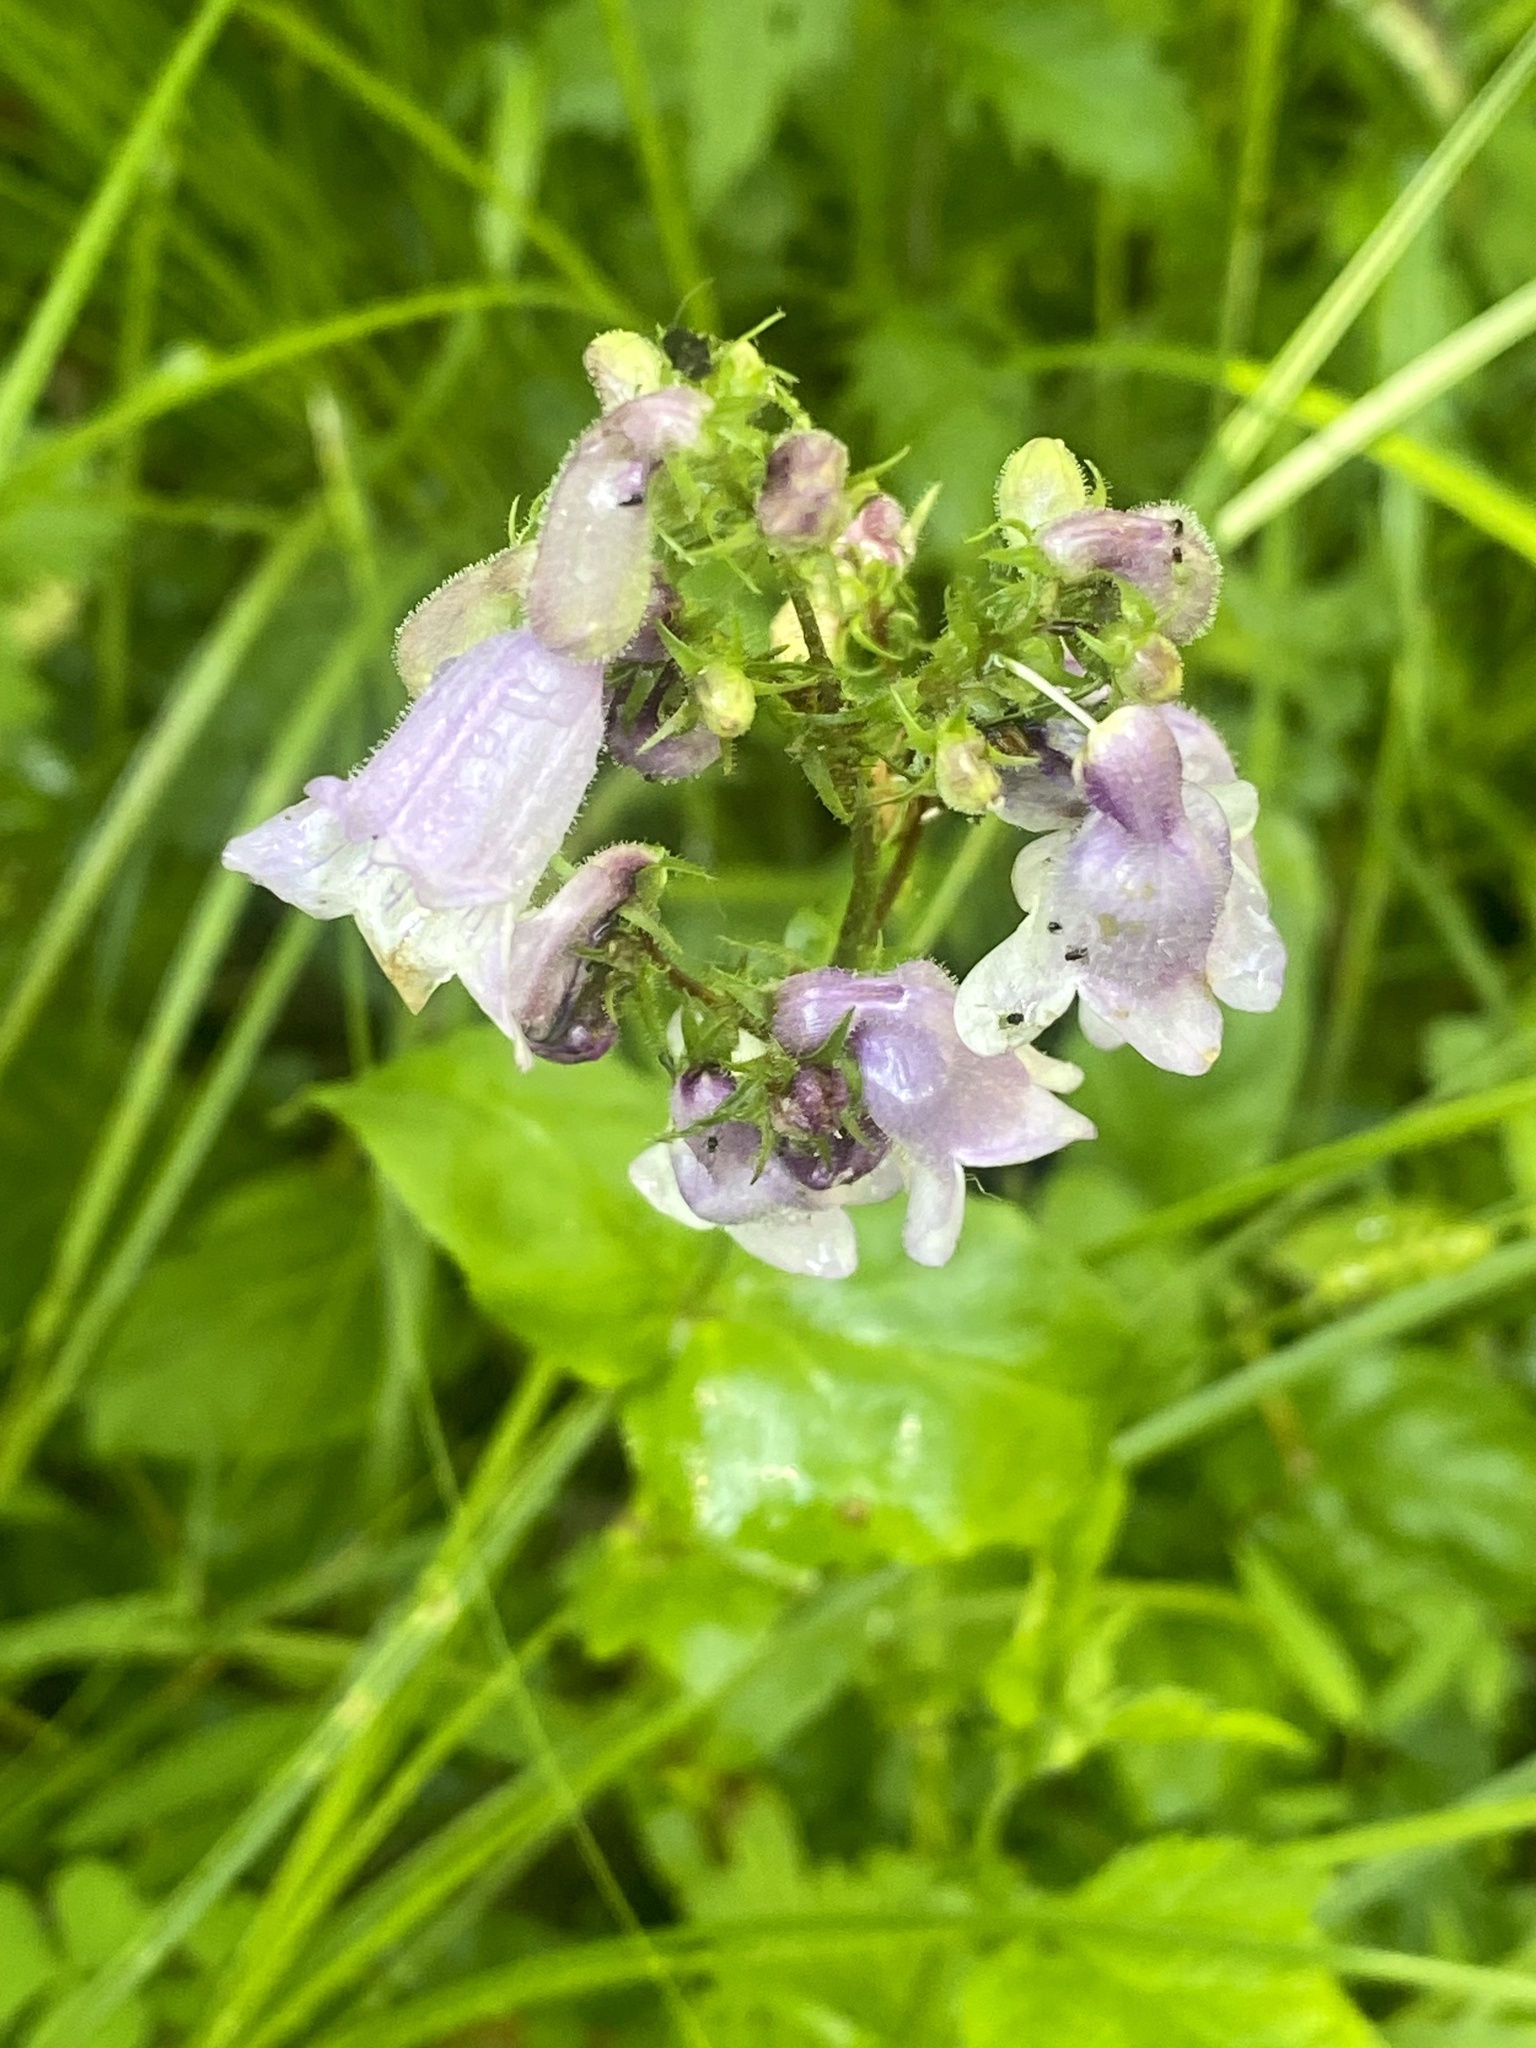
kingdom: Plantae
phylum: Tracheophyta
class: Magnoliopsida
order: Lamiales
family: Plantaginaceae
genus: Penstemon
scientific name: Penstemon digitalis
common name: Foxglove beardtongue
